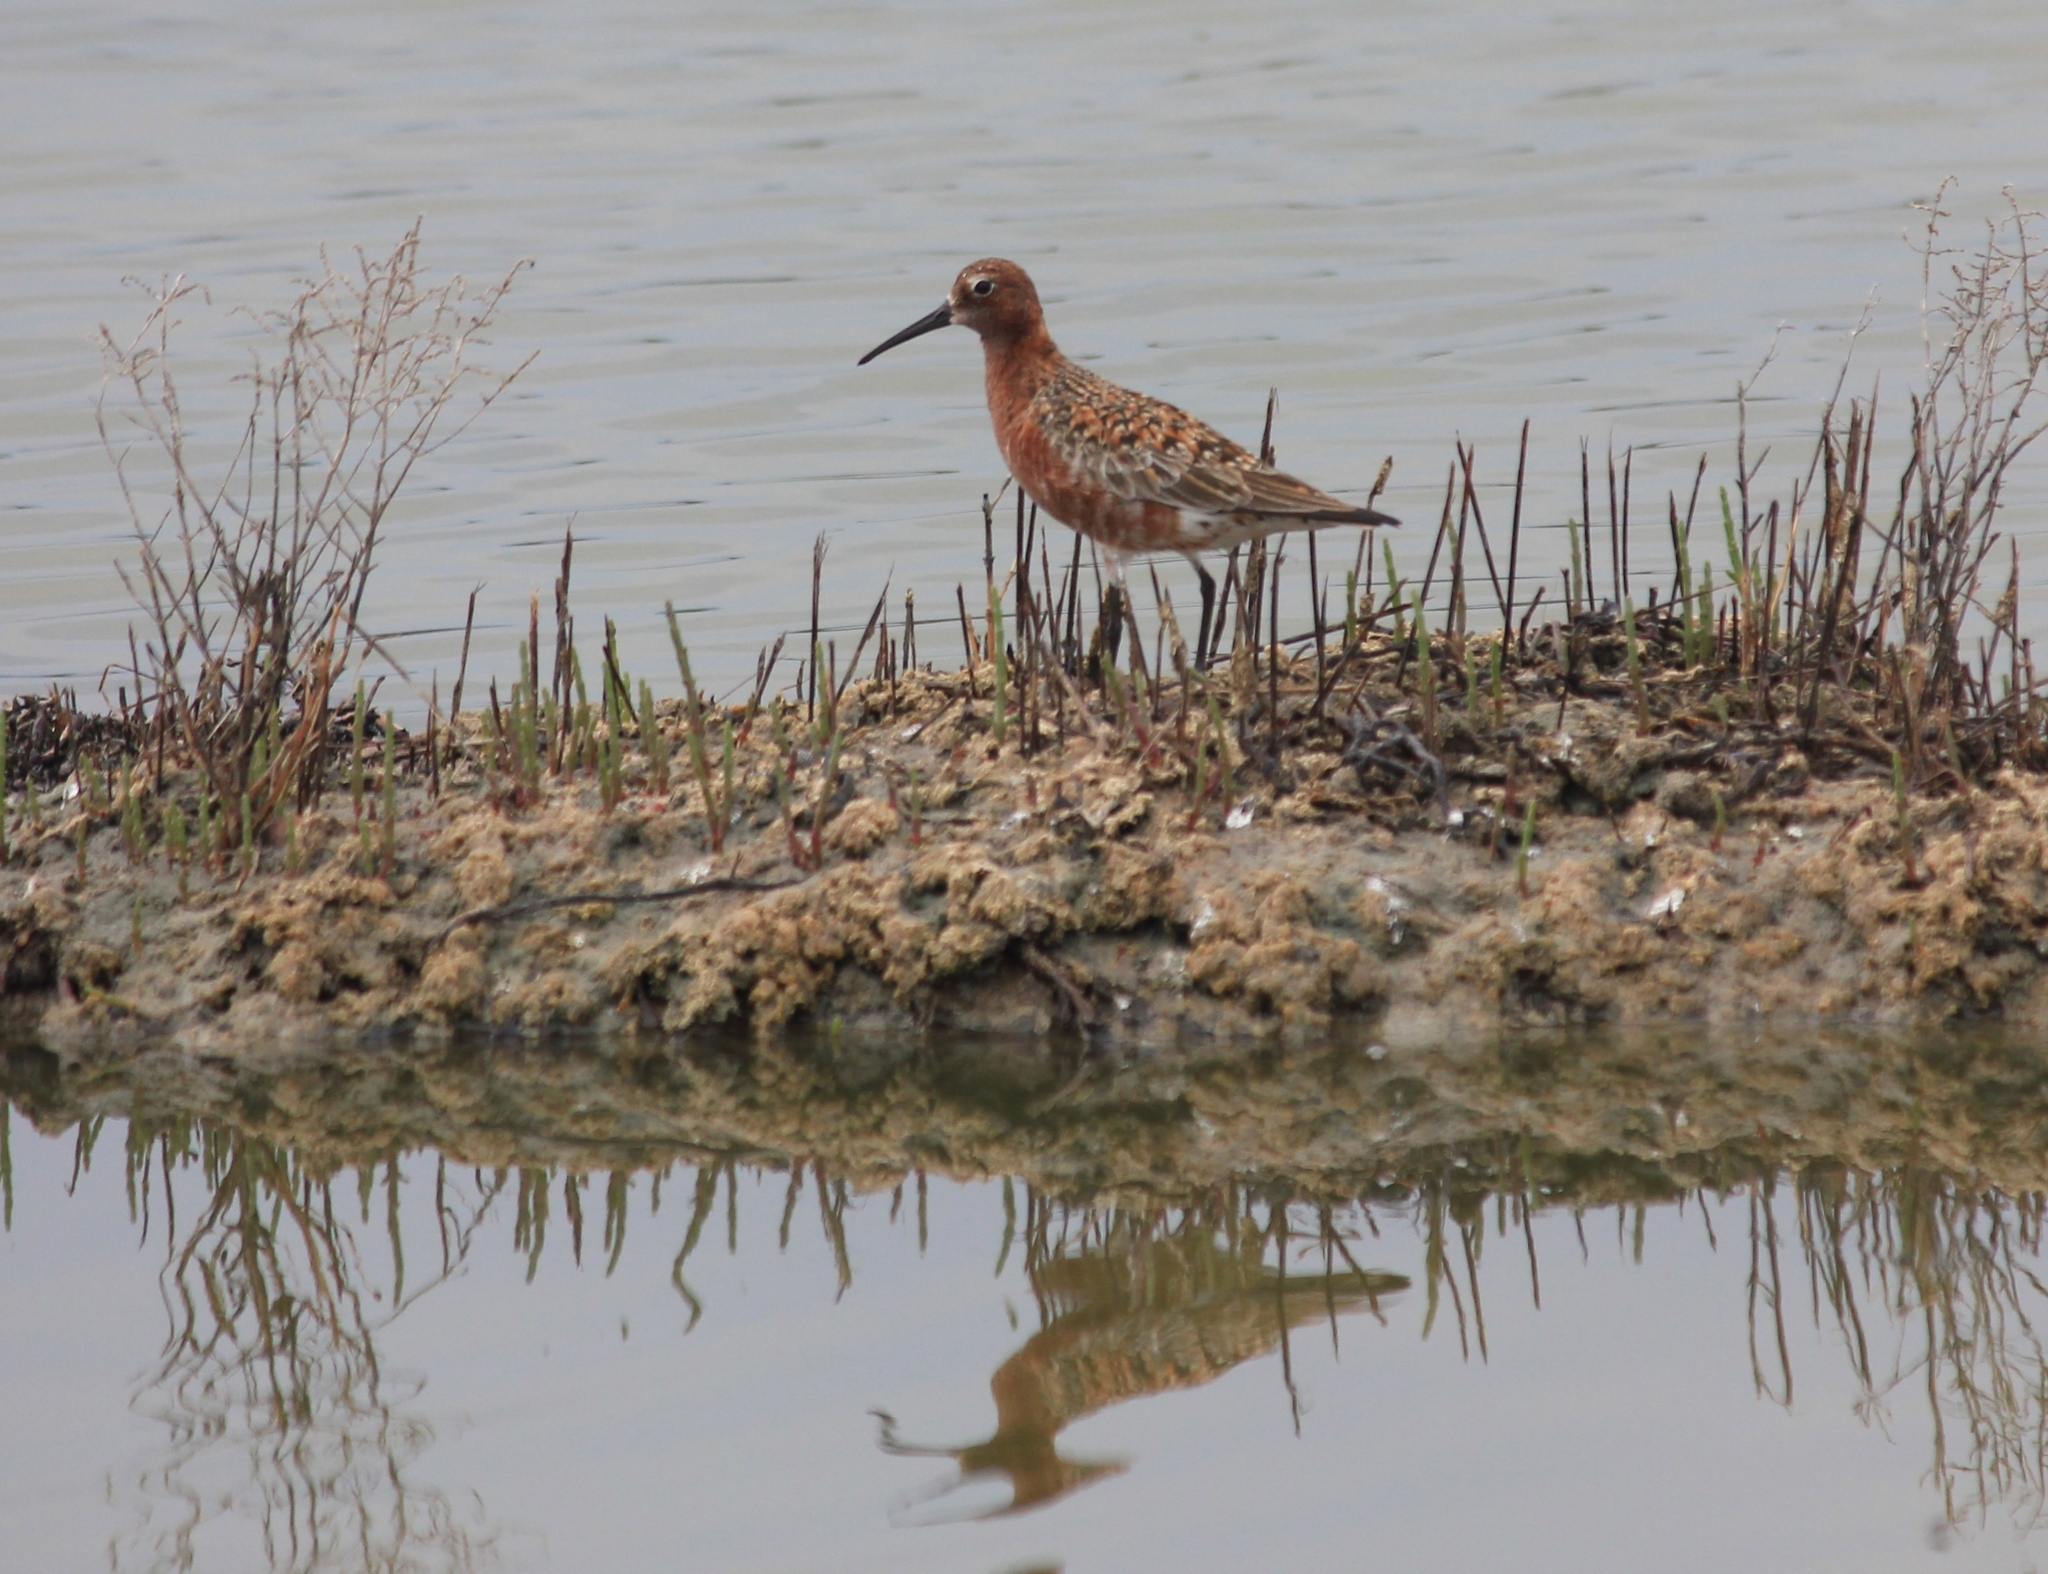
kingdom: Animalia
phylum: Chordata
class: Aves
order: Charadriiformes
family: Scolopacidae
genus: Calidris
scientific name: Calidris ferruginea
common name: Curlew sandpiper
